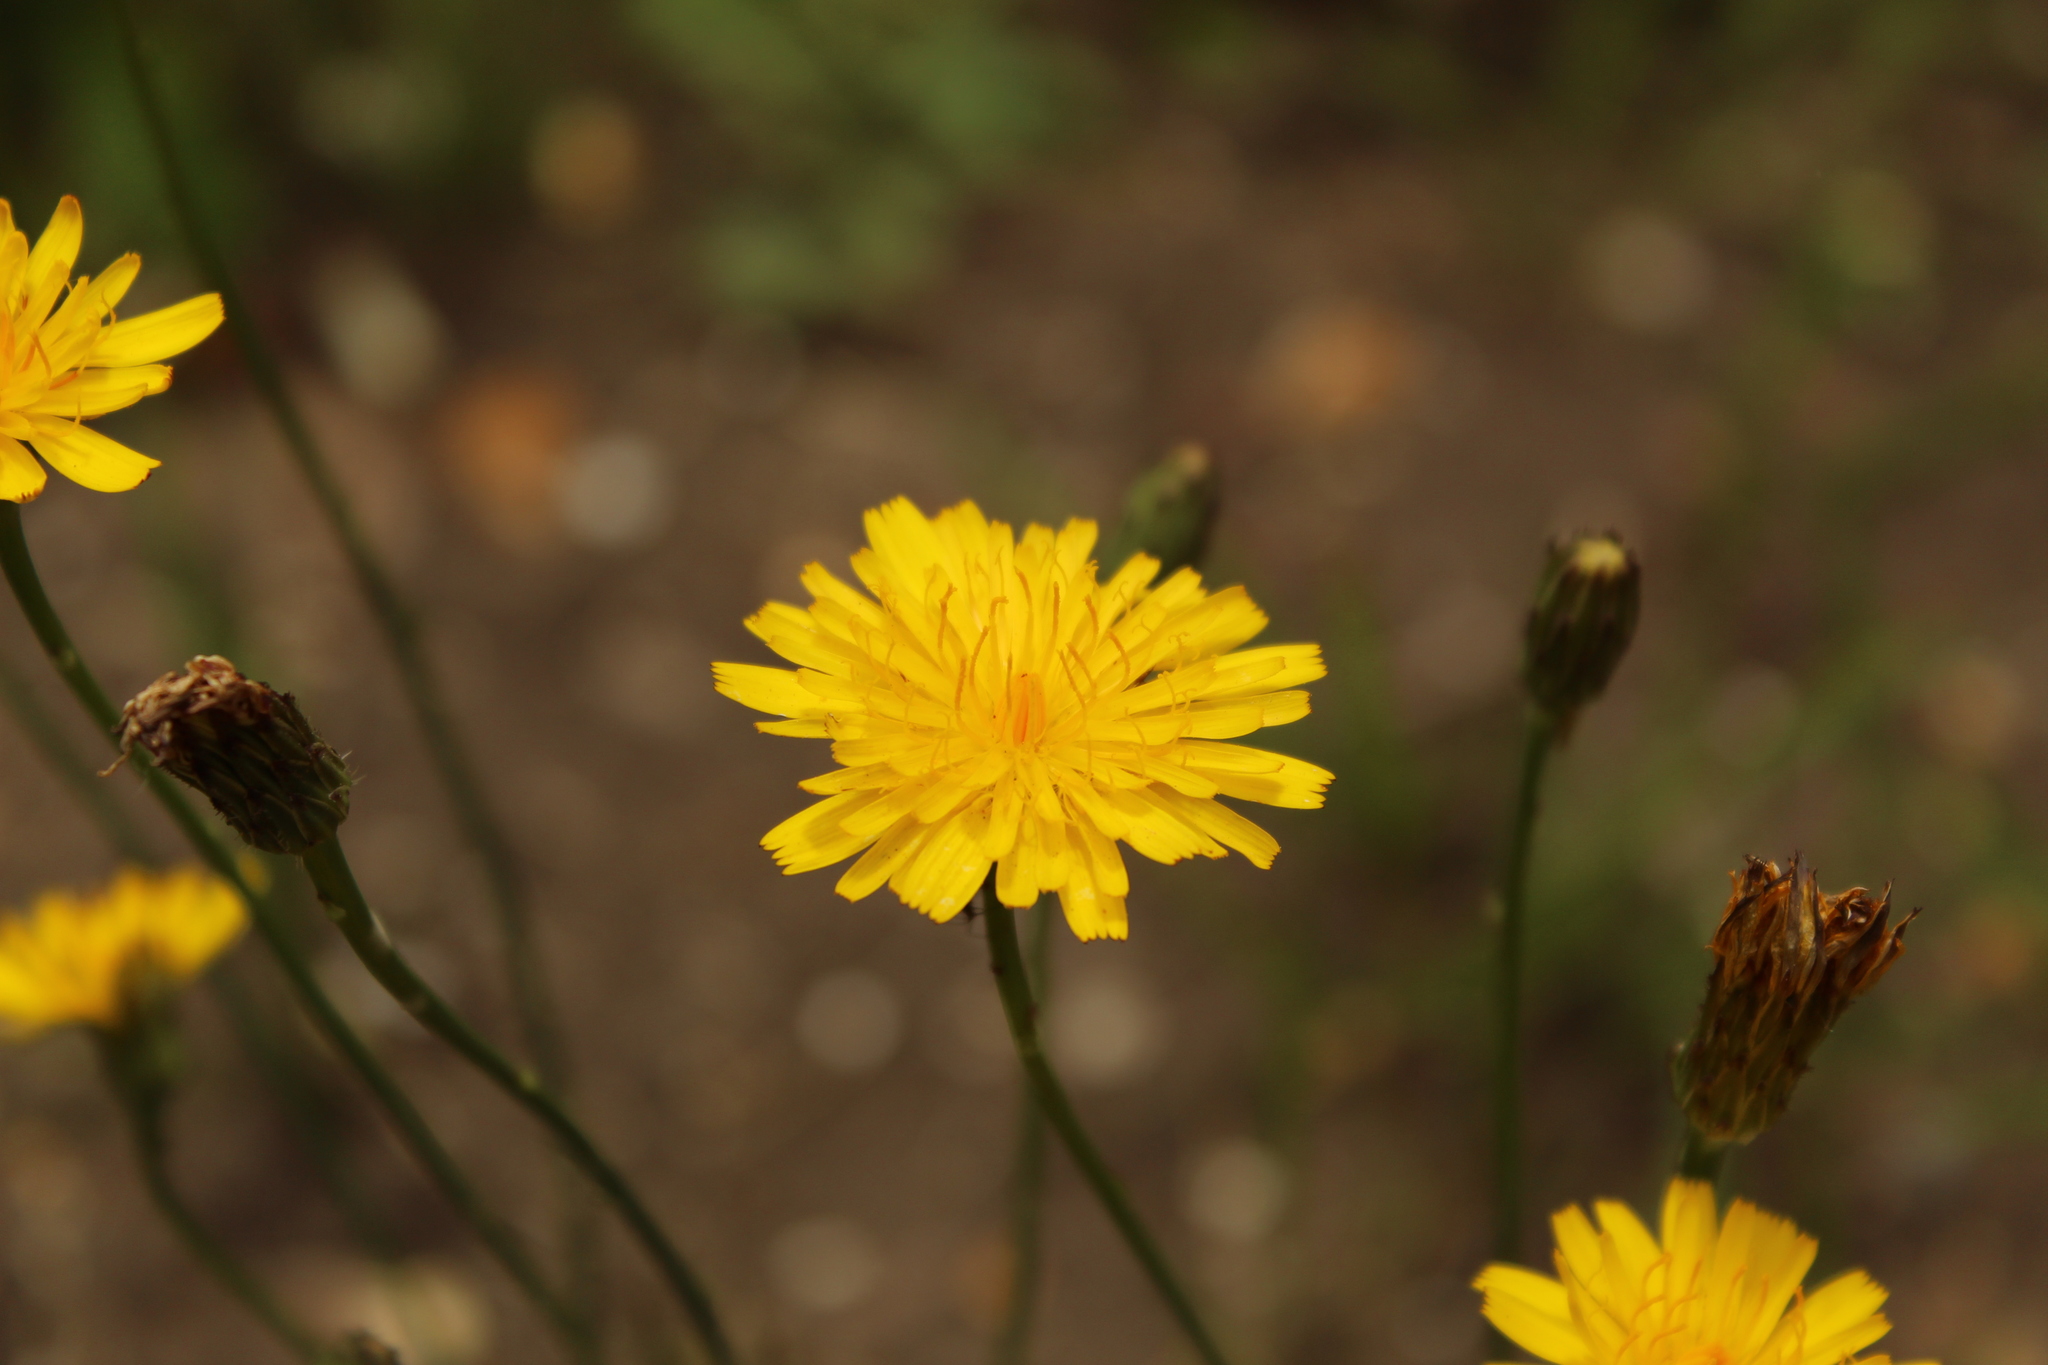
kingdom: Plantae
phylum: Tracheophyta
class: Magnoliopsida
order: Asterales
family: Asteraceae
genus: Hypochaeris
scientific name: Hypochaeris radicata
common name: Flatweed
